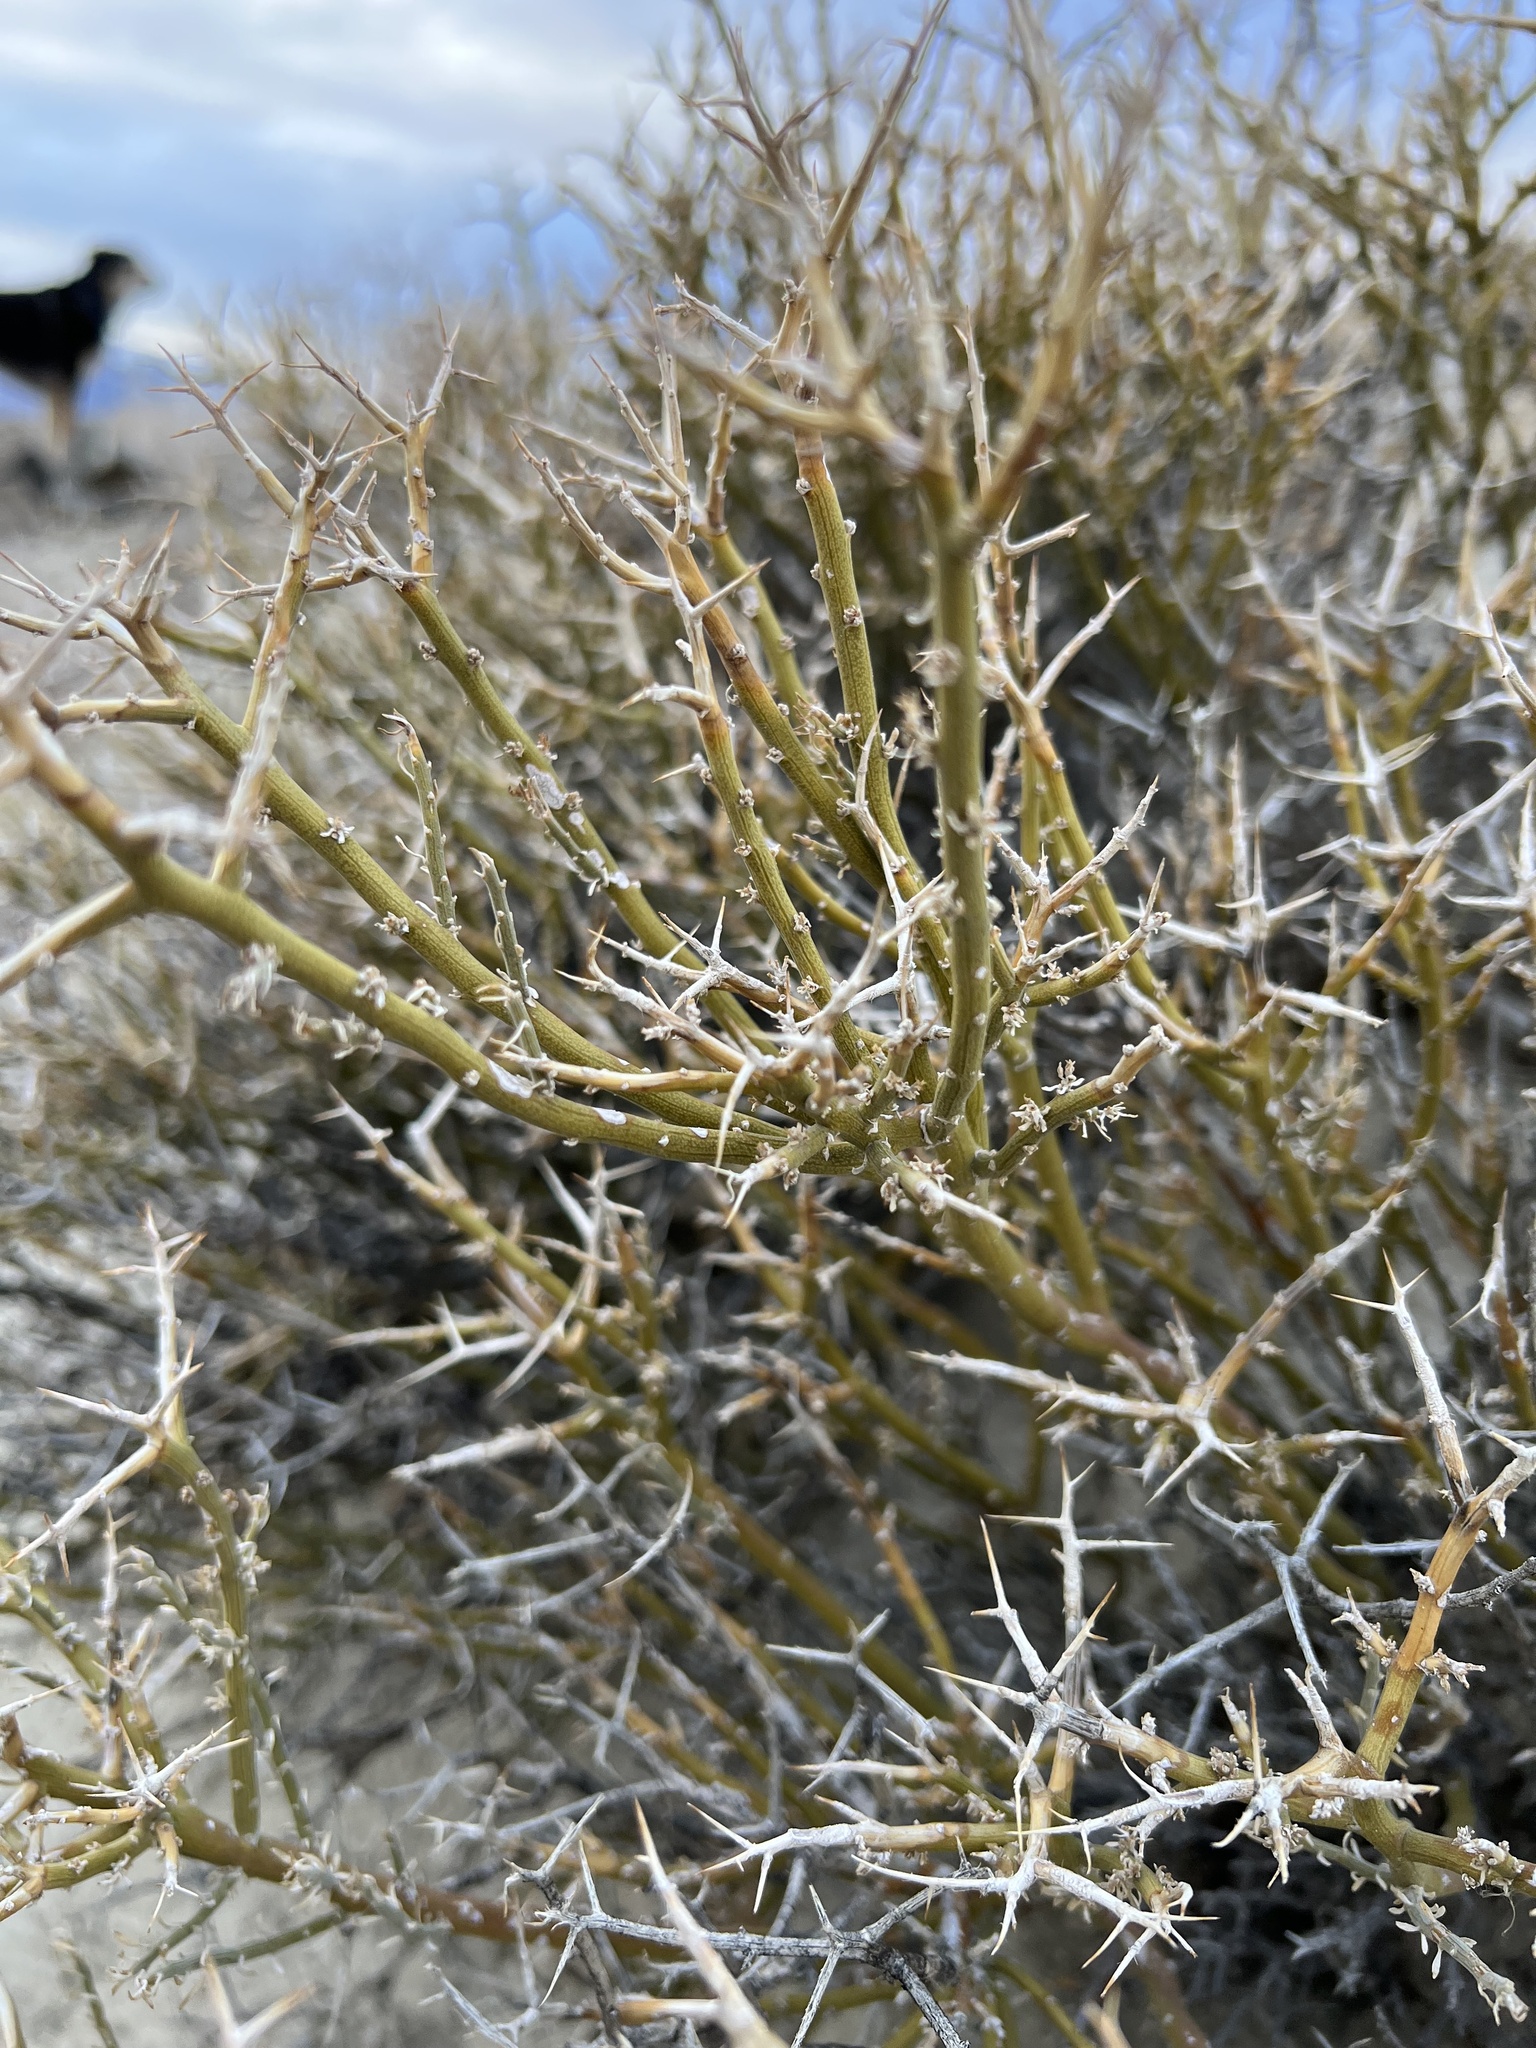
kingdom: Plantae
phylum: Tracheophyta
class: Magnoliopsida
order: Lamiales
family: Oleaceae
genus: Menodora
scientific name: Menodora spinescens
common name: Spiny menodora
